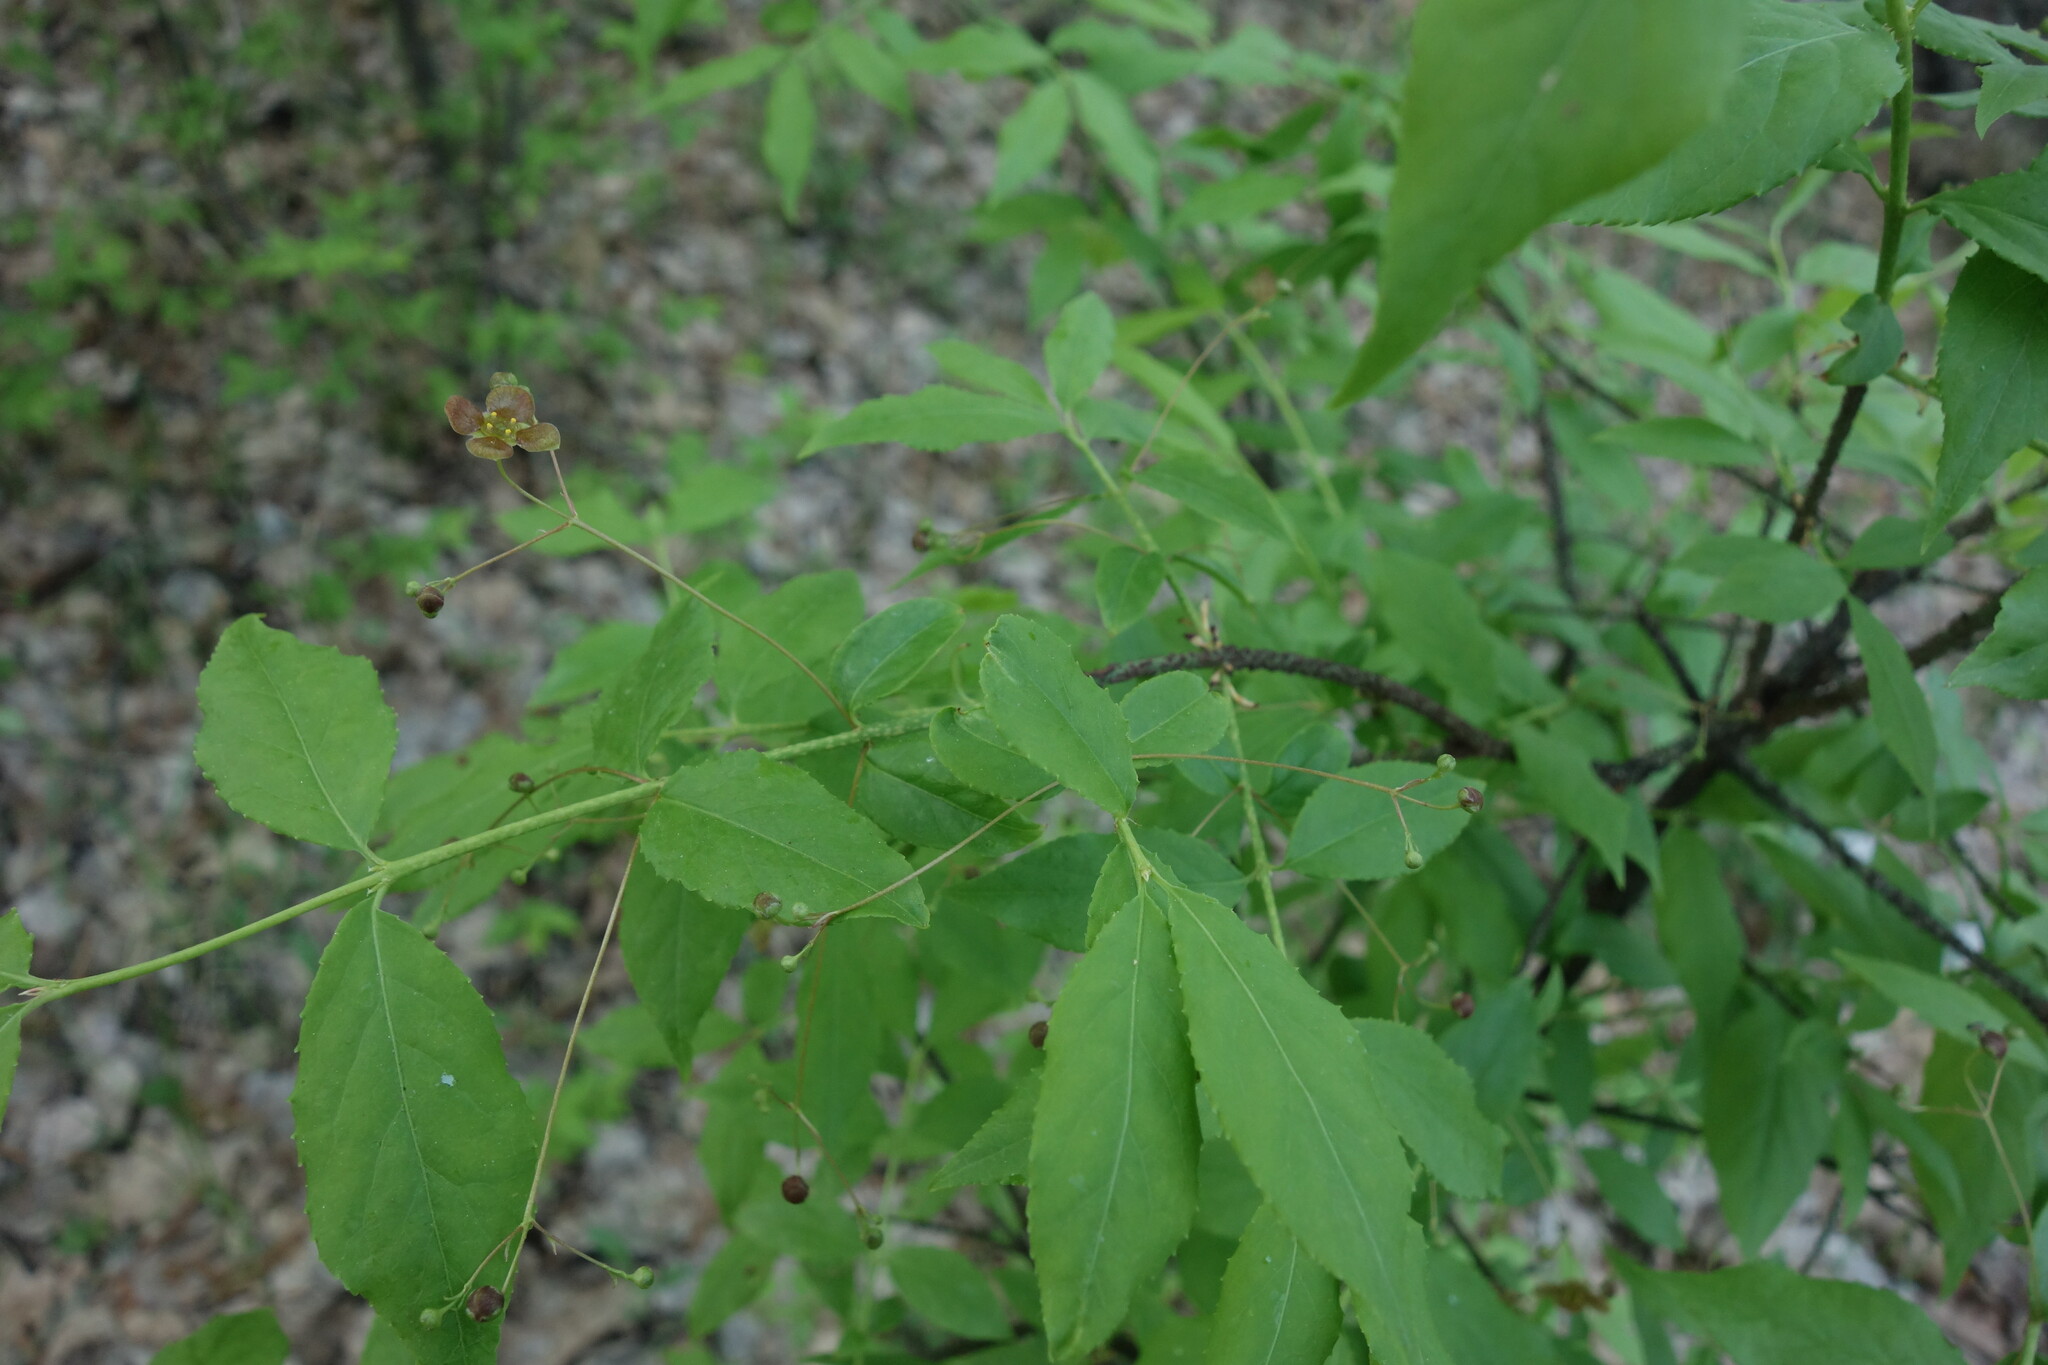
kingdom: Plantae
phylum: Tracheophyta
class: Magnoliopsida
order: Celastrales
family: Celastraceae
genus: Euonymus
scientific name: Euonymus verrucosus
